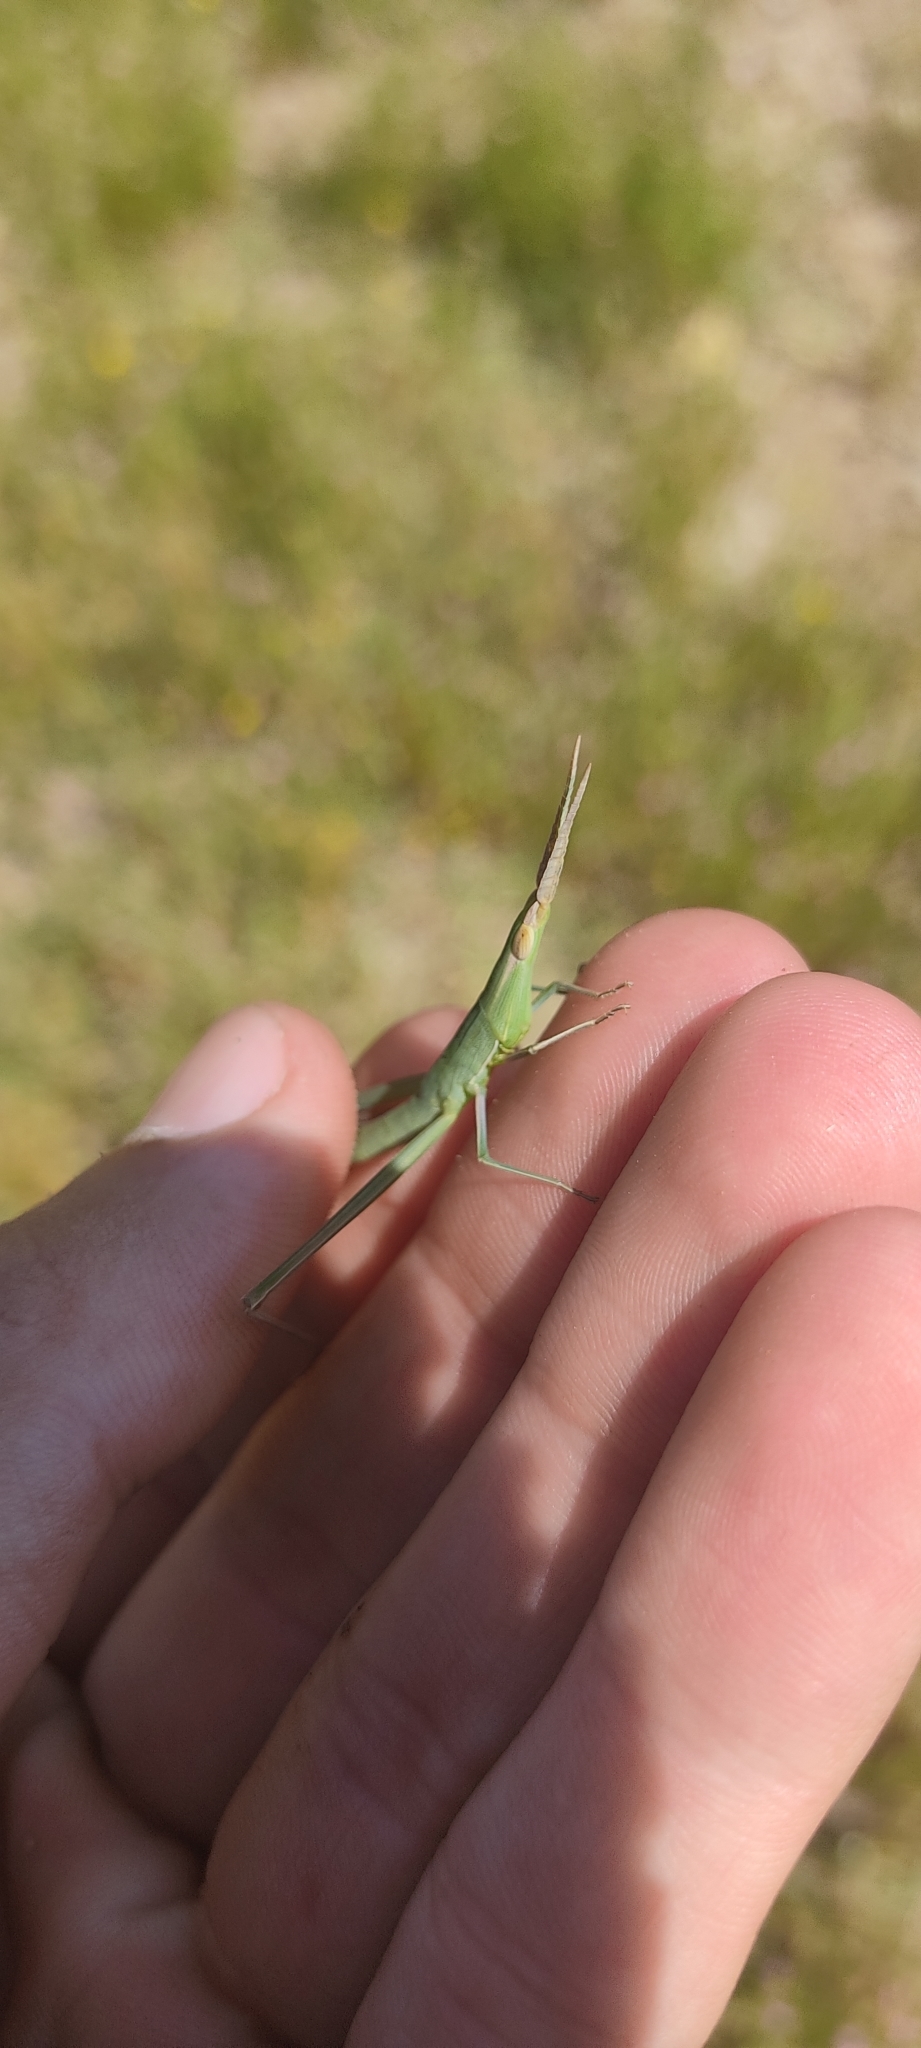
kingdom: Animalia
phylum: Arthropoda
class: Insecta
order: Orthoptera
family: Acrididae
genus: Acrida
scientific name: Acrida ungarica
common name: Common cone-headed grasshopper
